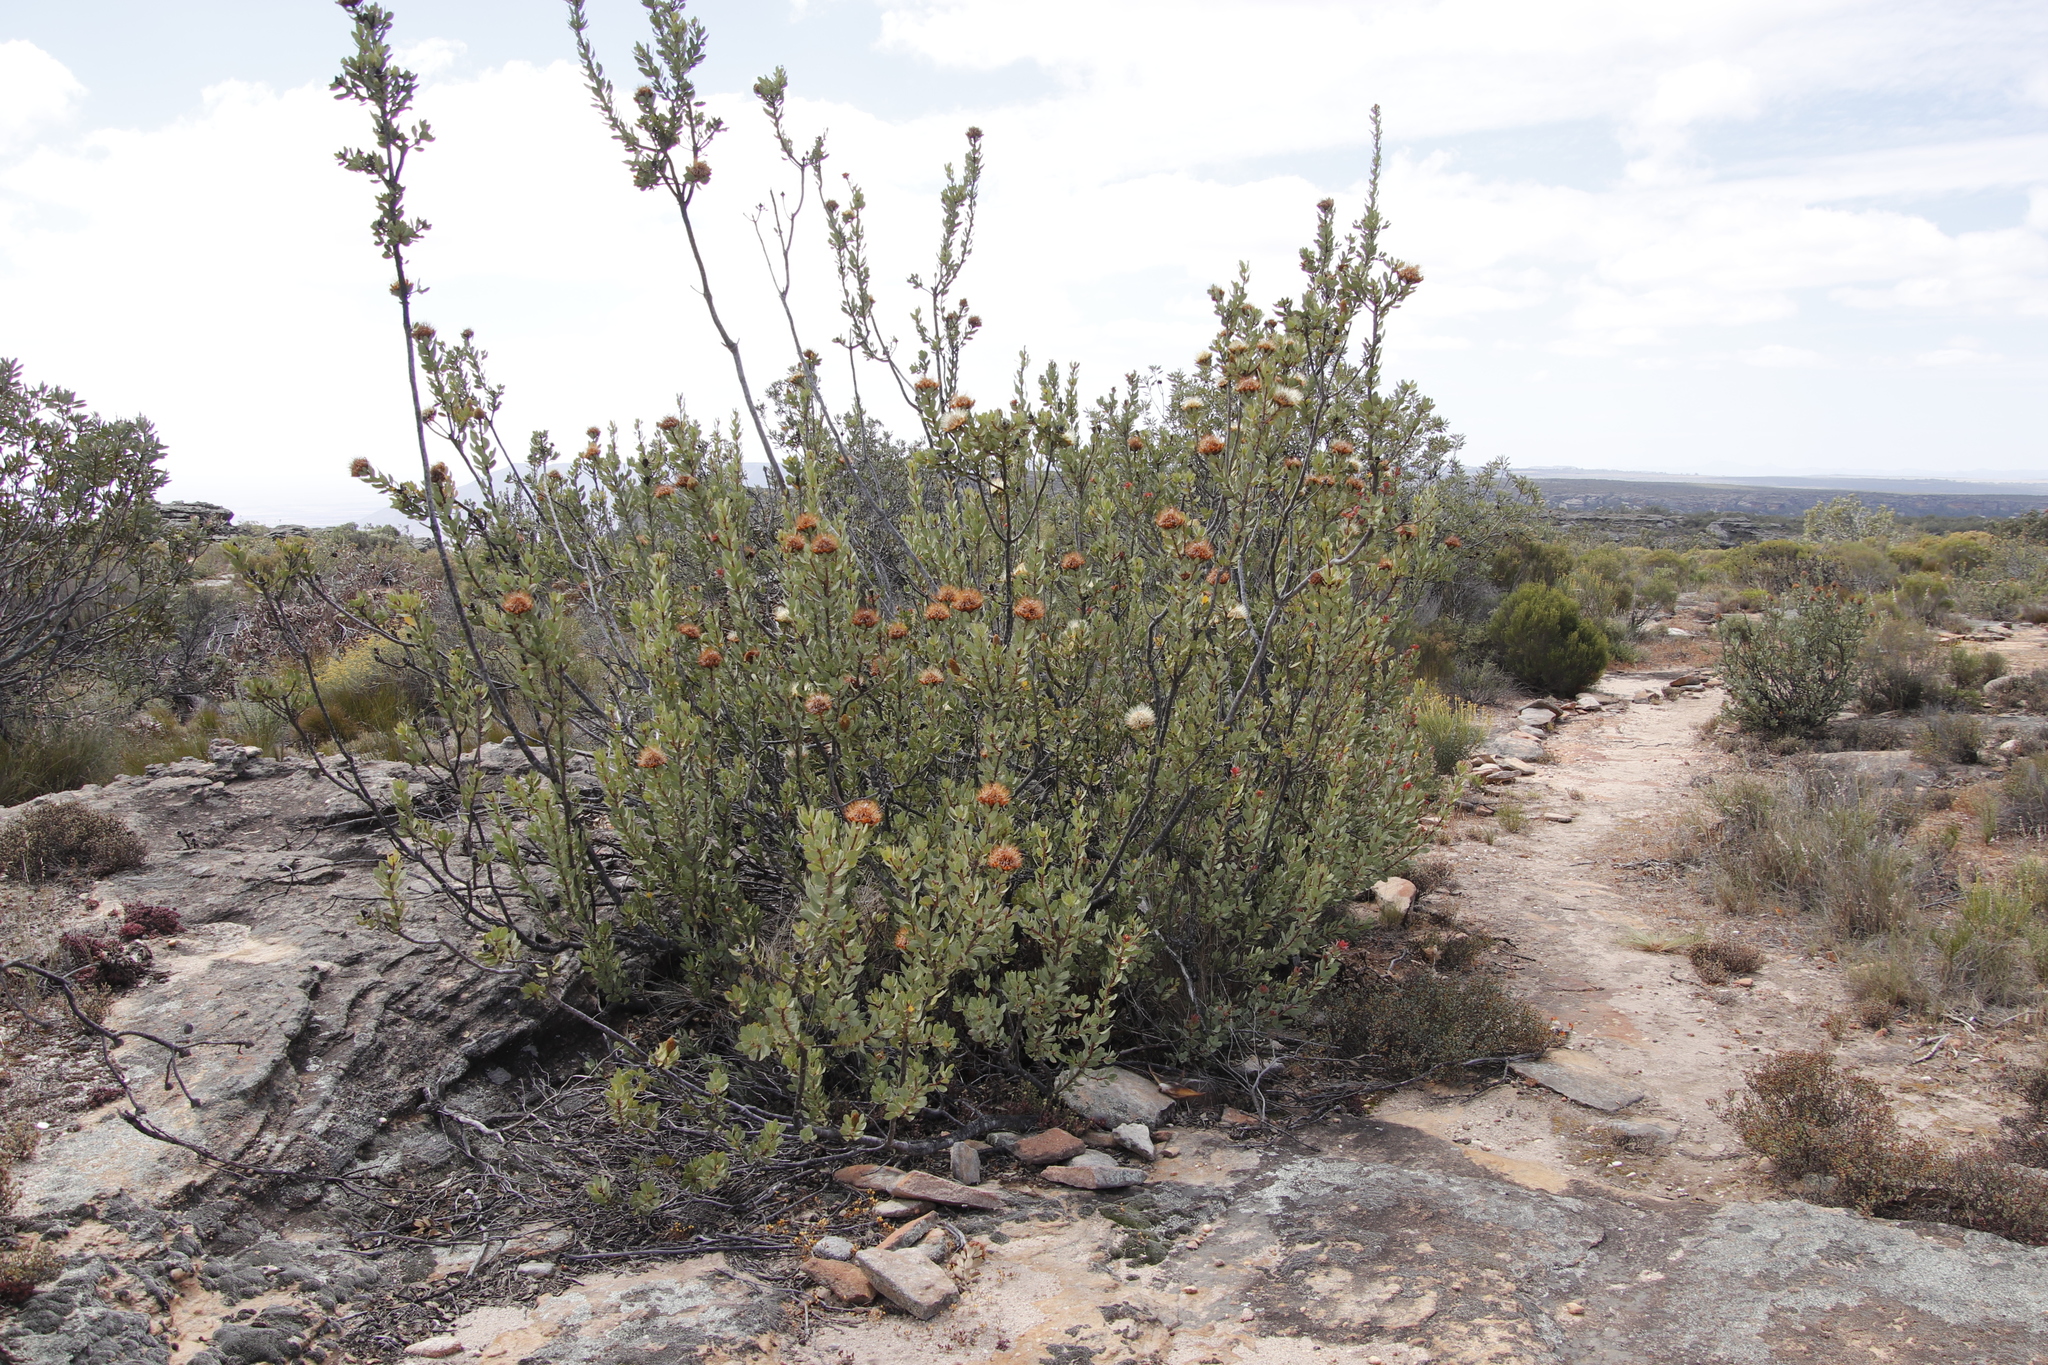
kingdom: Plantae
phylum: Tracheophyta
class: Magnoliopsida
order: Proteales
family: Proteaceae
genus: Protea
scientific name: Protea glabra
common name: Chestnut sugarbush
